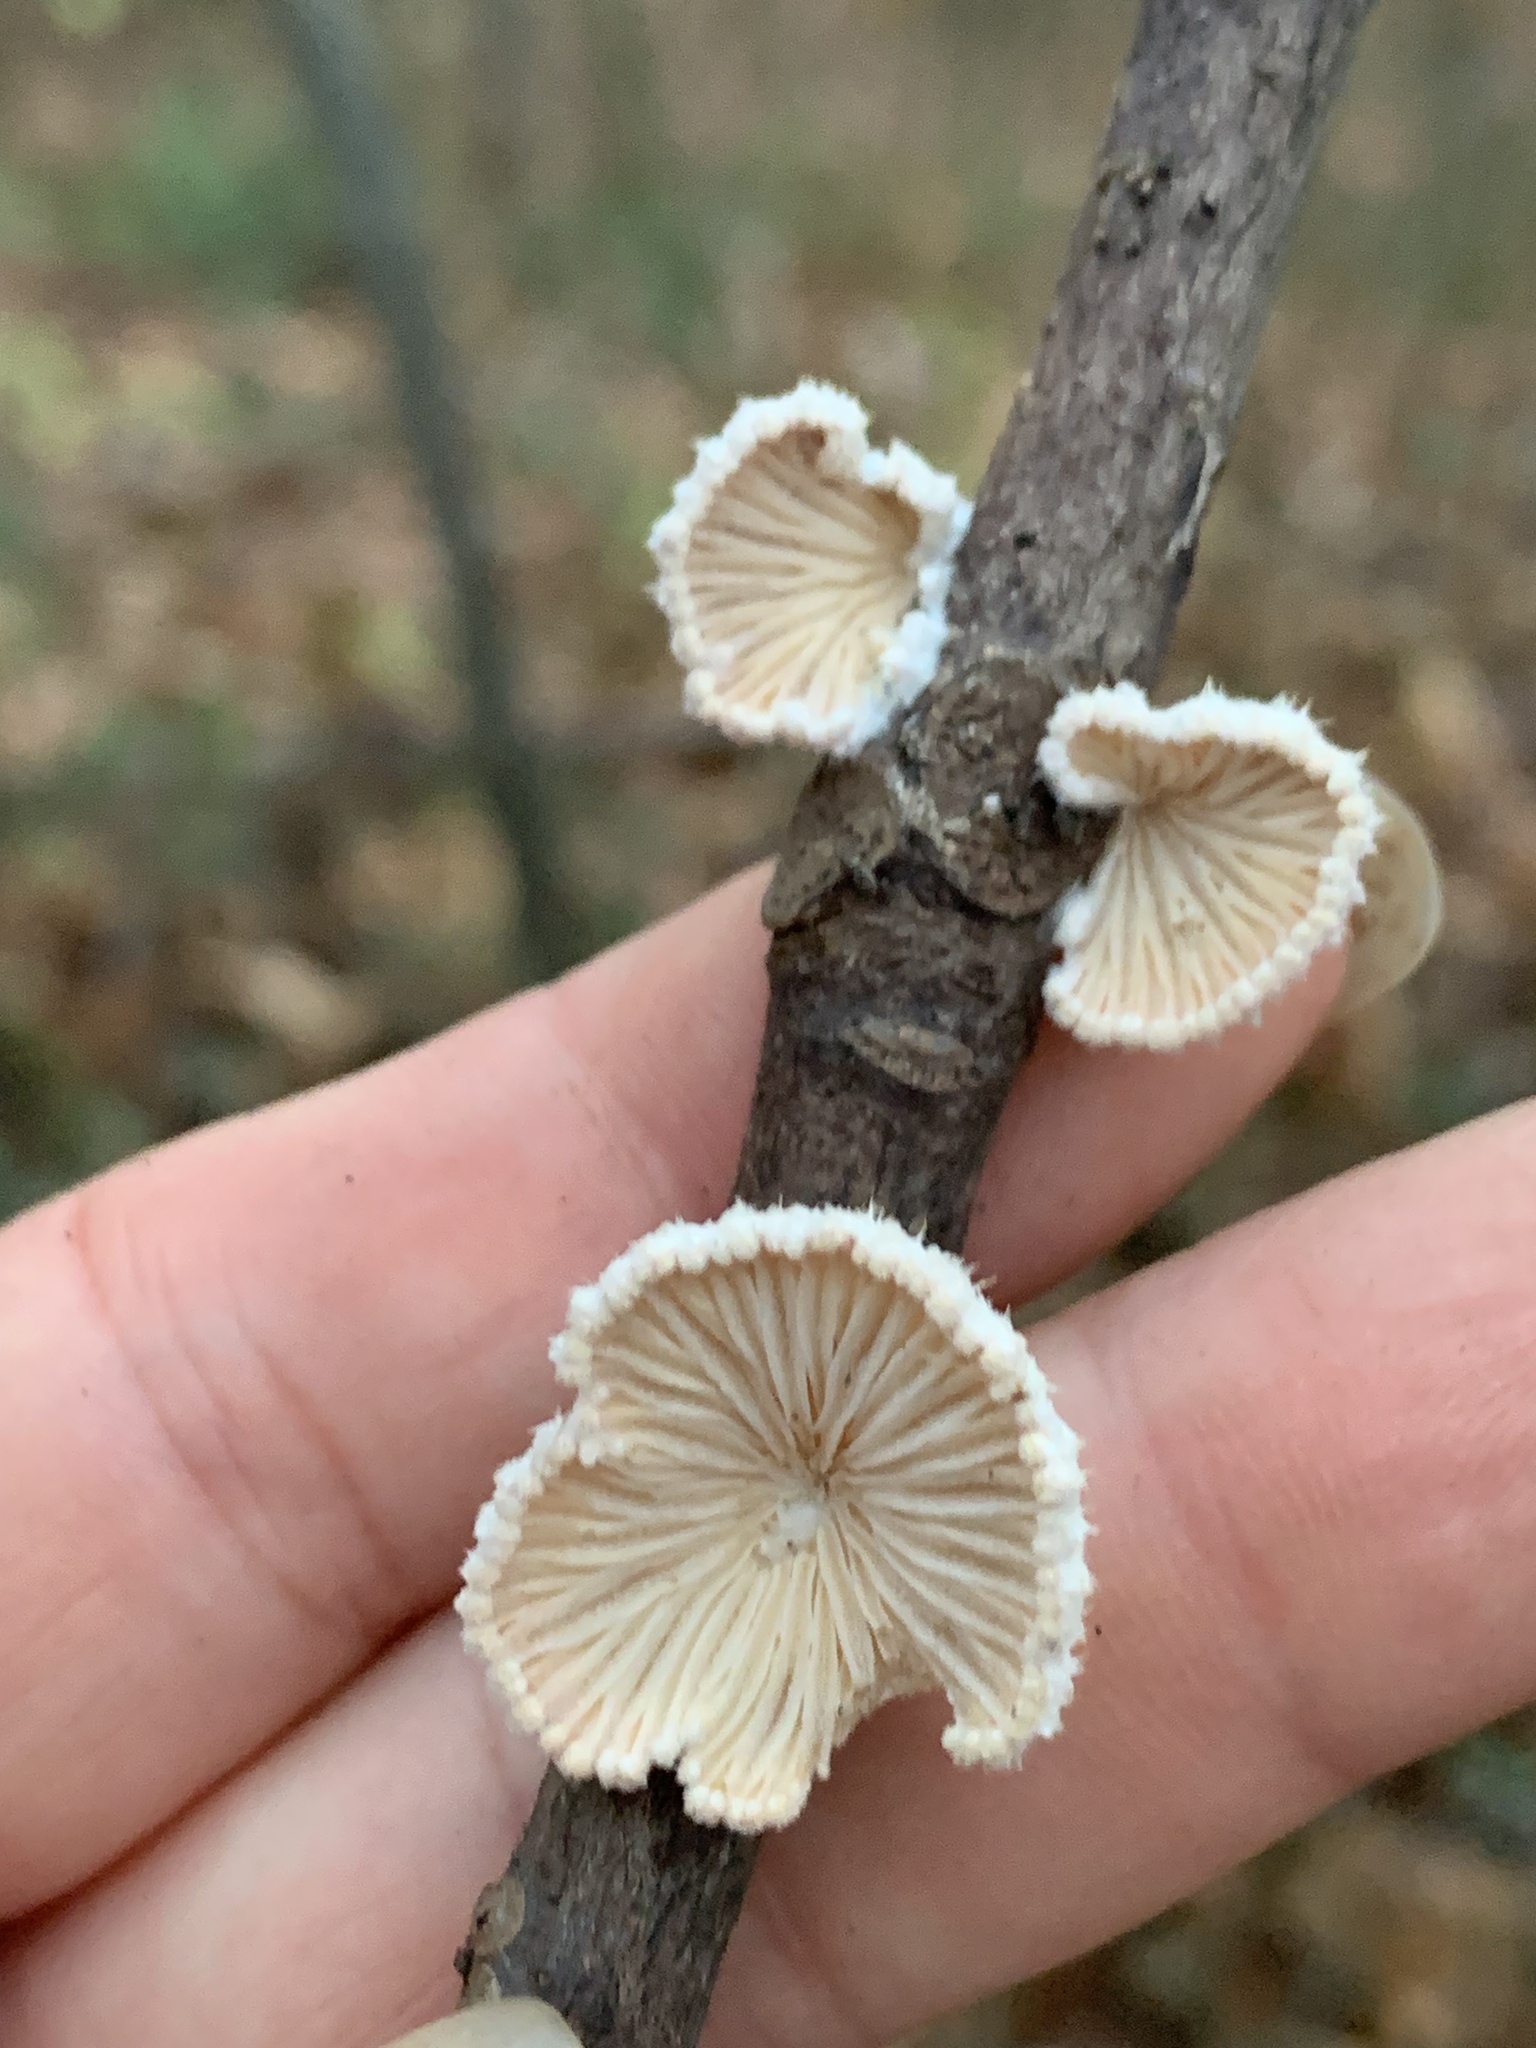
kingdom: Fungi
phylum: Basidiomycota
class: Agaricomycetes
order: Agaricales
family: Schizophyllaceae
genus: Schizophyllum
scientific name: Schizophyllum commune
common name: Common porecrust
